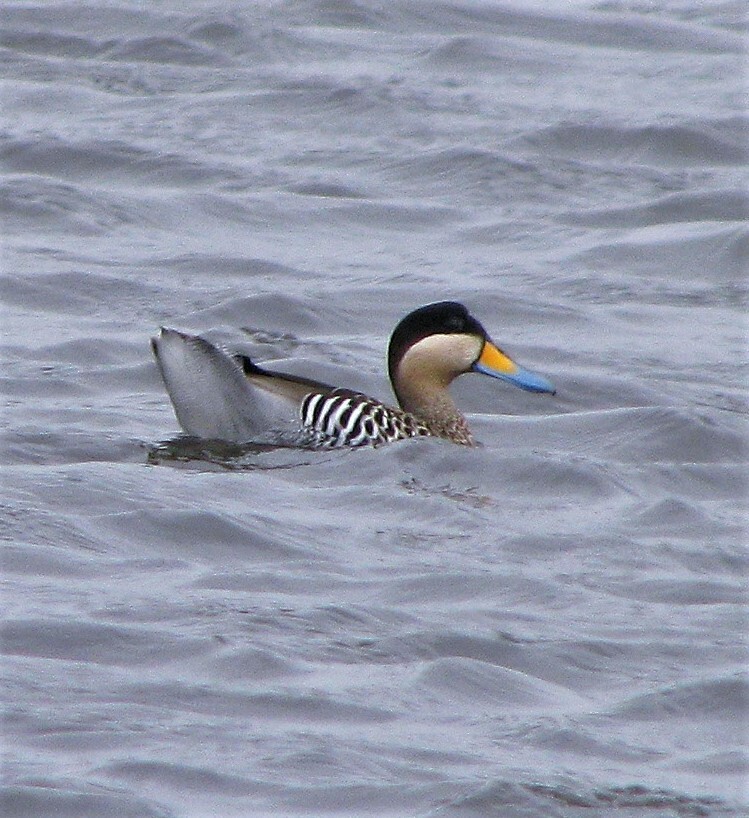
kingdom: Animalia
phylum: Chordata
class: Aves
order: Anseriformes
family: Anatidae
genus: Spatula
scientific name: Spatula versicolor
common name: Silver teal
